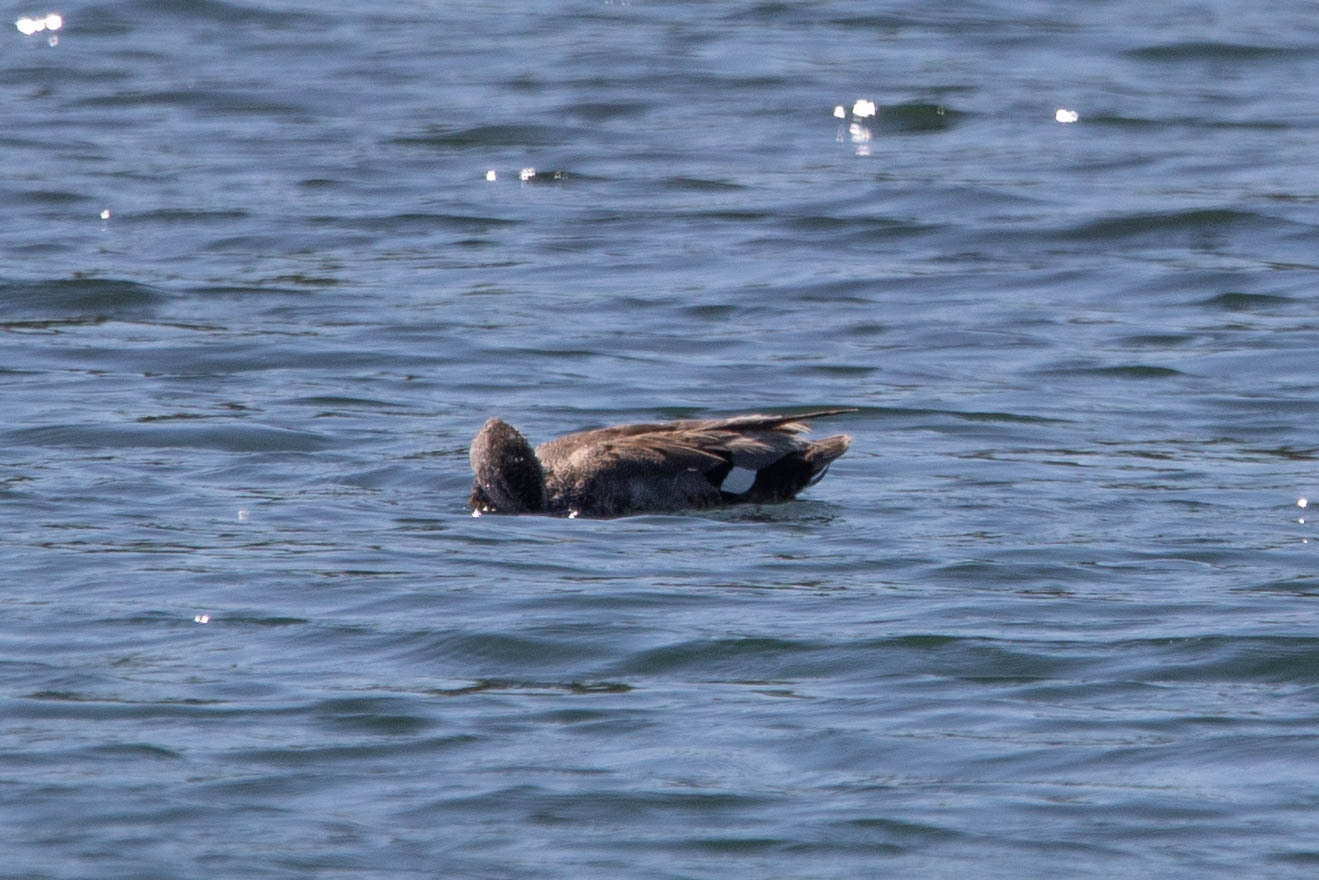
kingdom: Animalia
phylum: Chordata
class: Aves
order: Anseriformes
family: Anatidae
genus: Mareca
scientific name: Mareca strepera
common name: Gadwall
